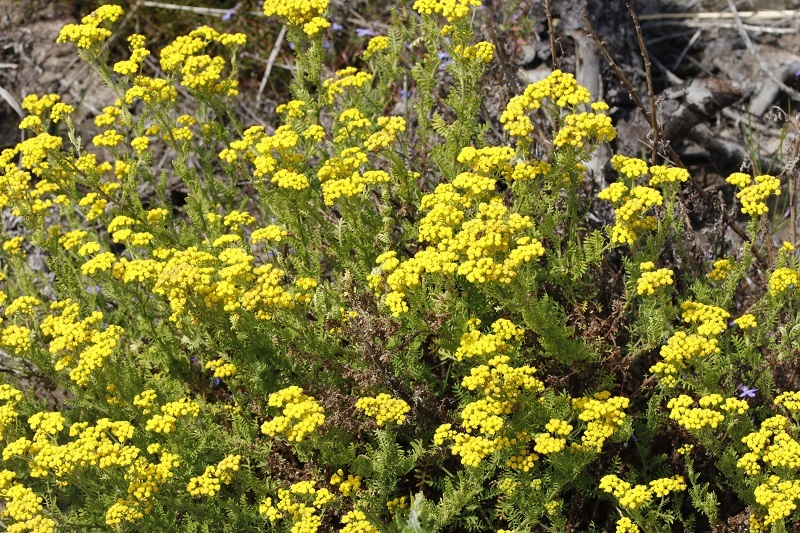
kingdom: Plantae
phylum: Tracheophyta
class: Magnoliopsida
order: Asterales
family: Asteraceae
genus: Hippia
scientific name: Hippia frutescens
